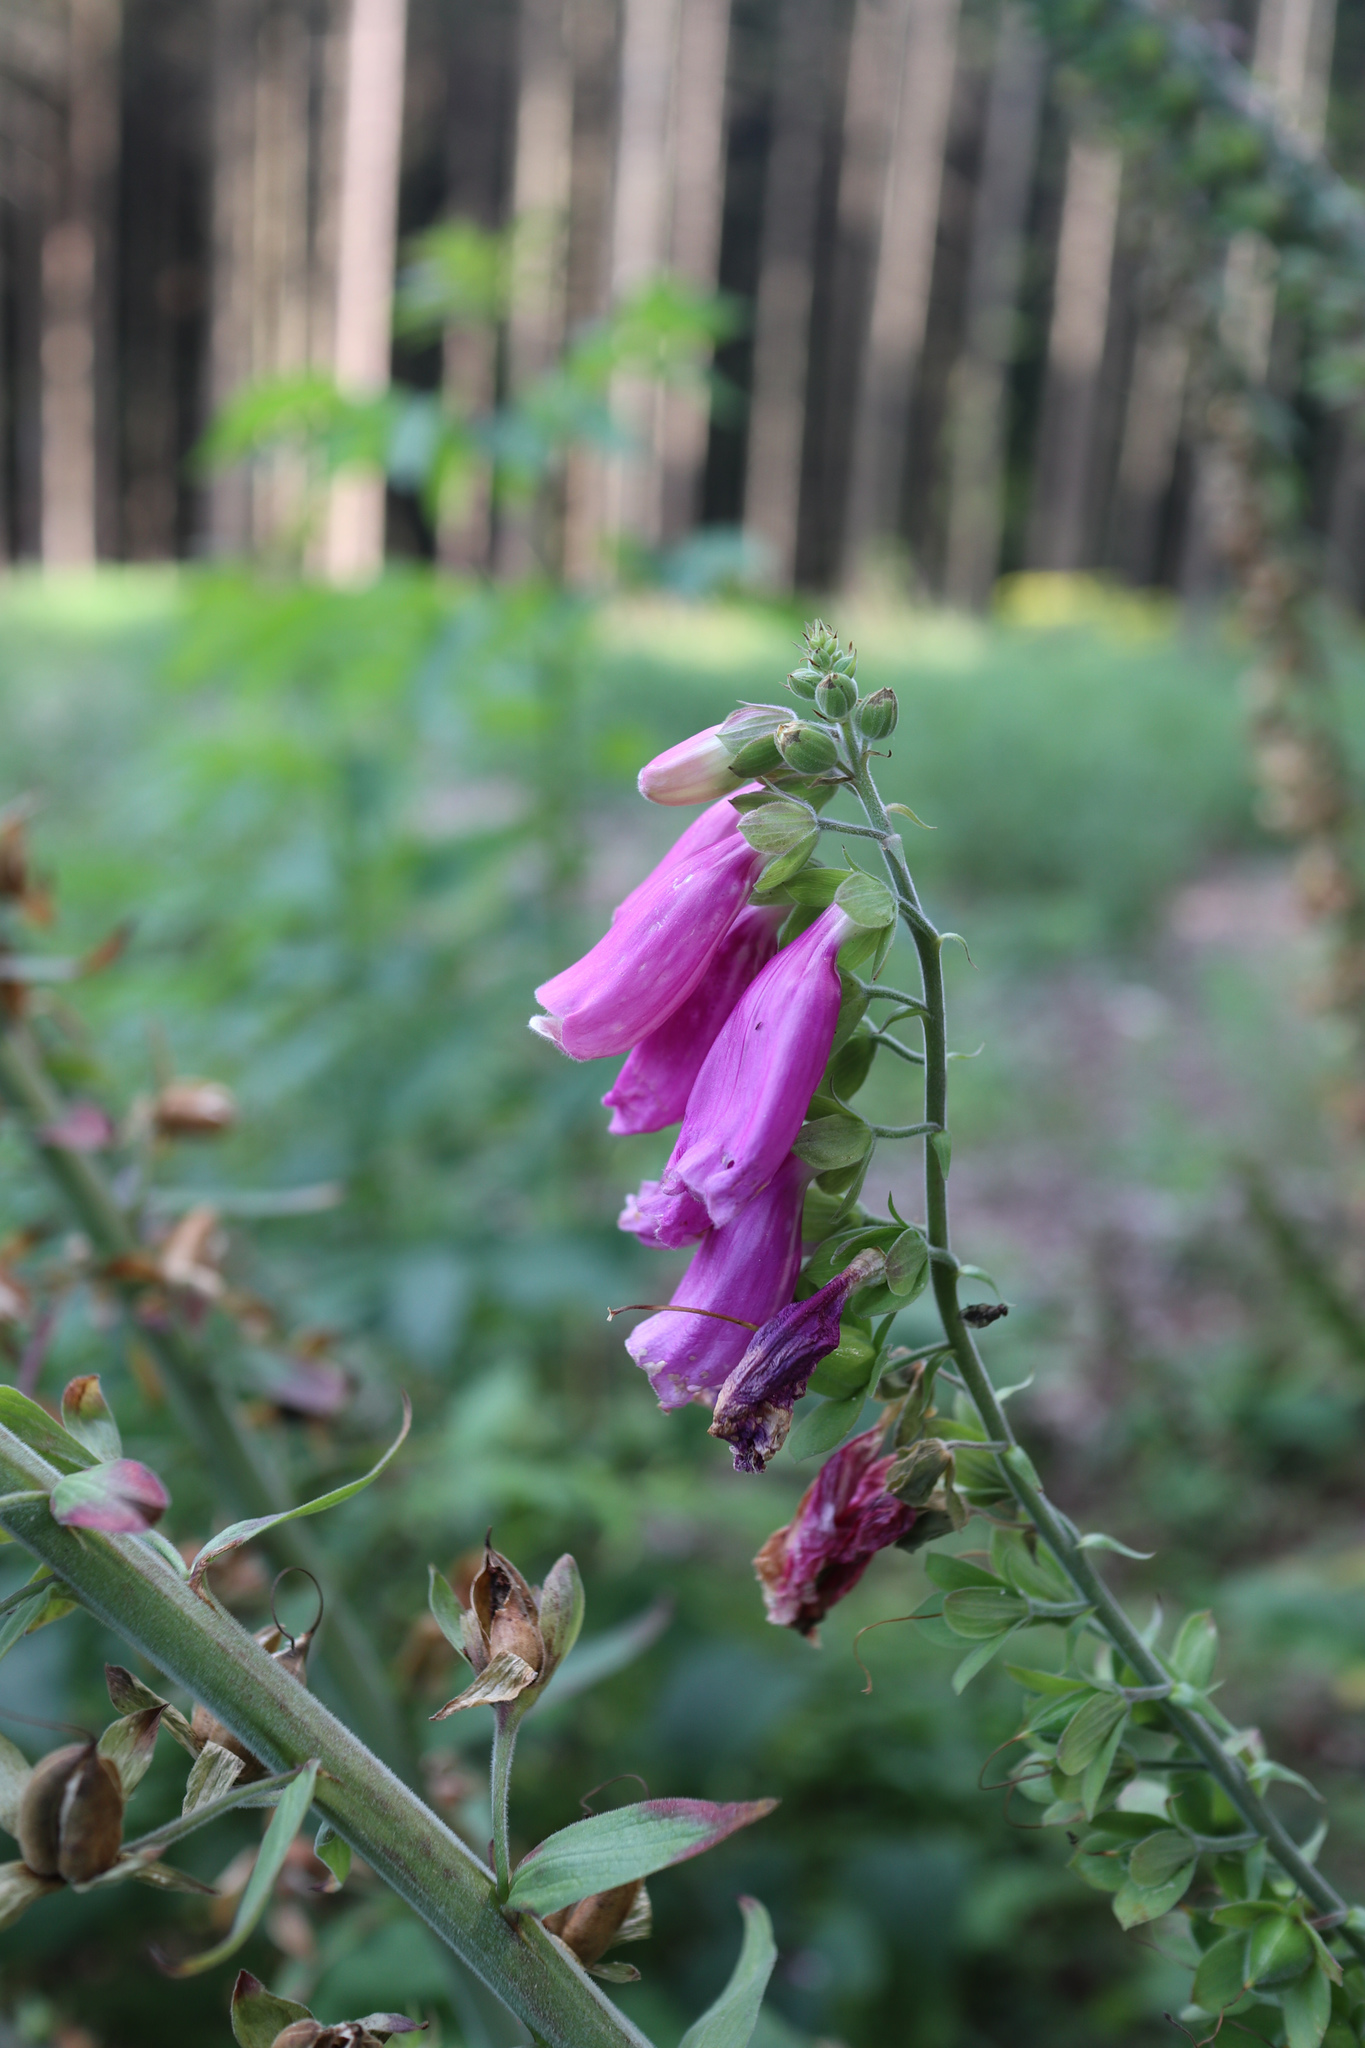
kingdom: Plantae
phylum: Tracheophyta
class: Magnoliopsida
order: Lamiales
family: Plantaginaceae
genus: Digitalis
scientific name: Digitalis purpurea
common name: Foxglove
